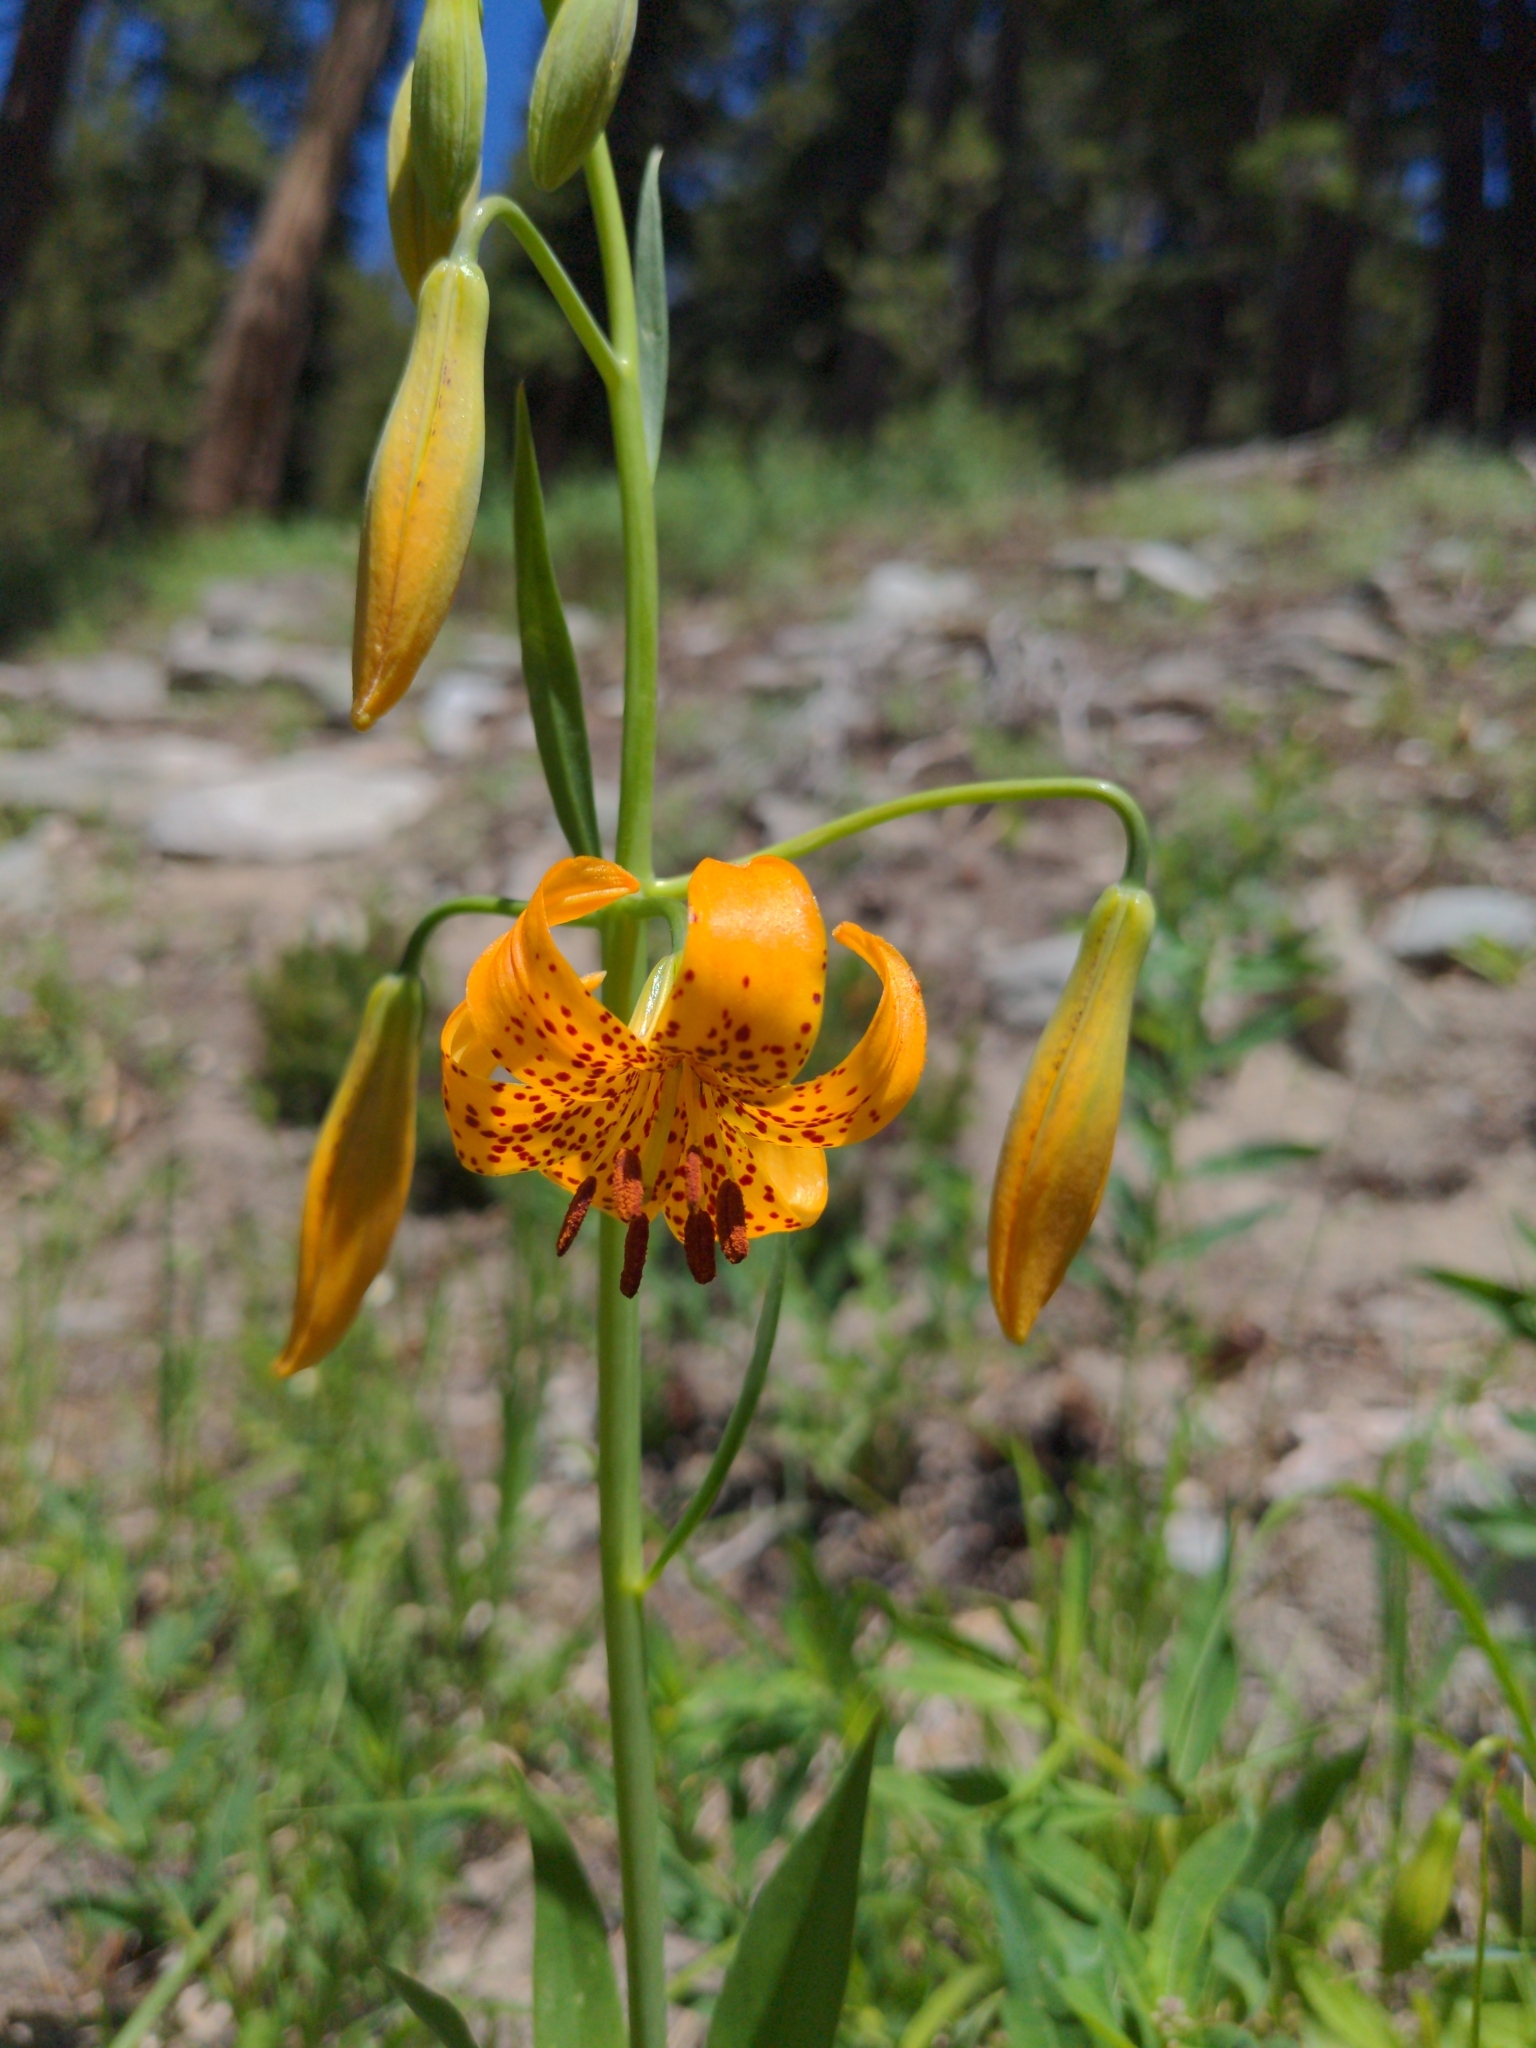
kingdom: Plantae
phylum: Tracheophyta
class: Liliopsida
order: Liliales
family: Liliaceae
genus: Lilium
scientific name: Lilium kelleyanum
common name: Kelley's lily
